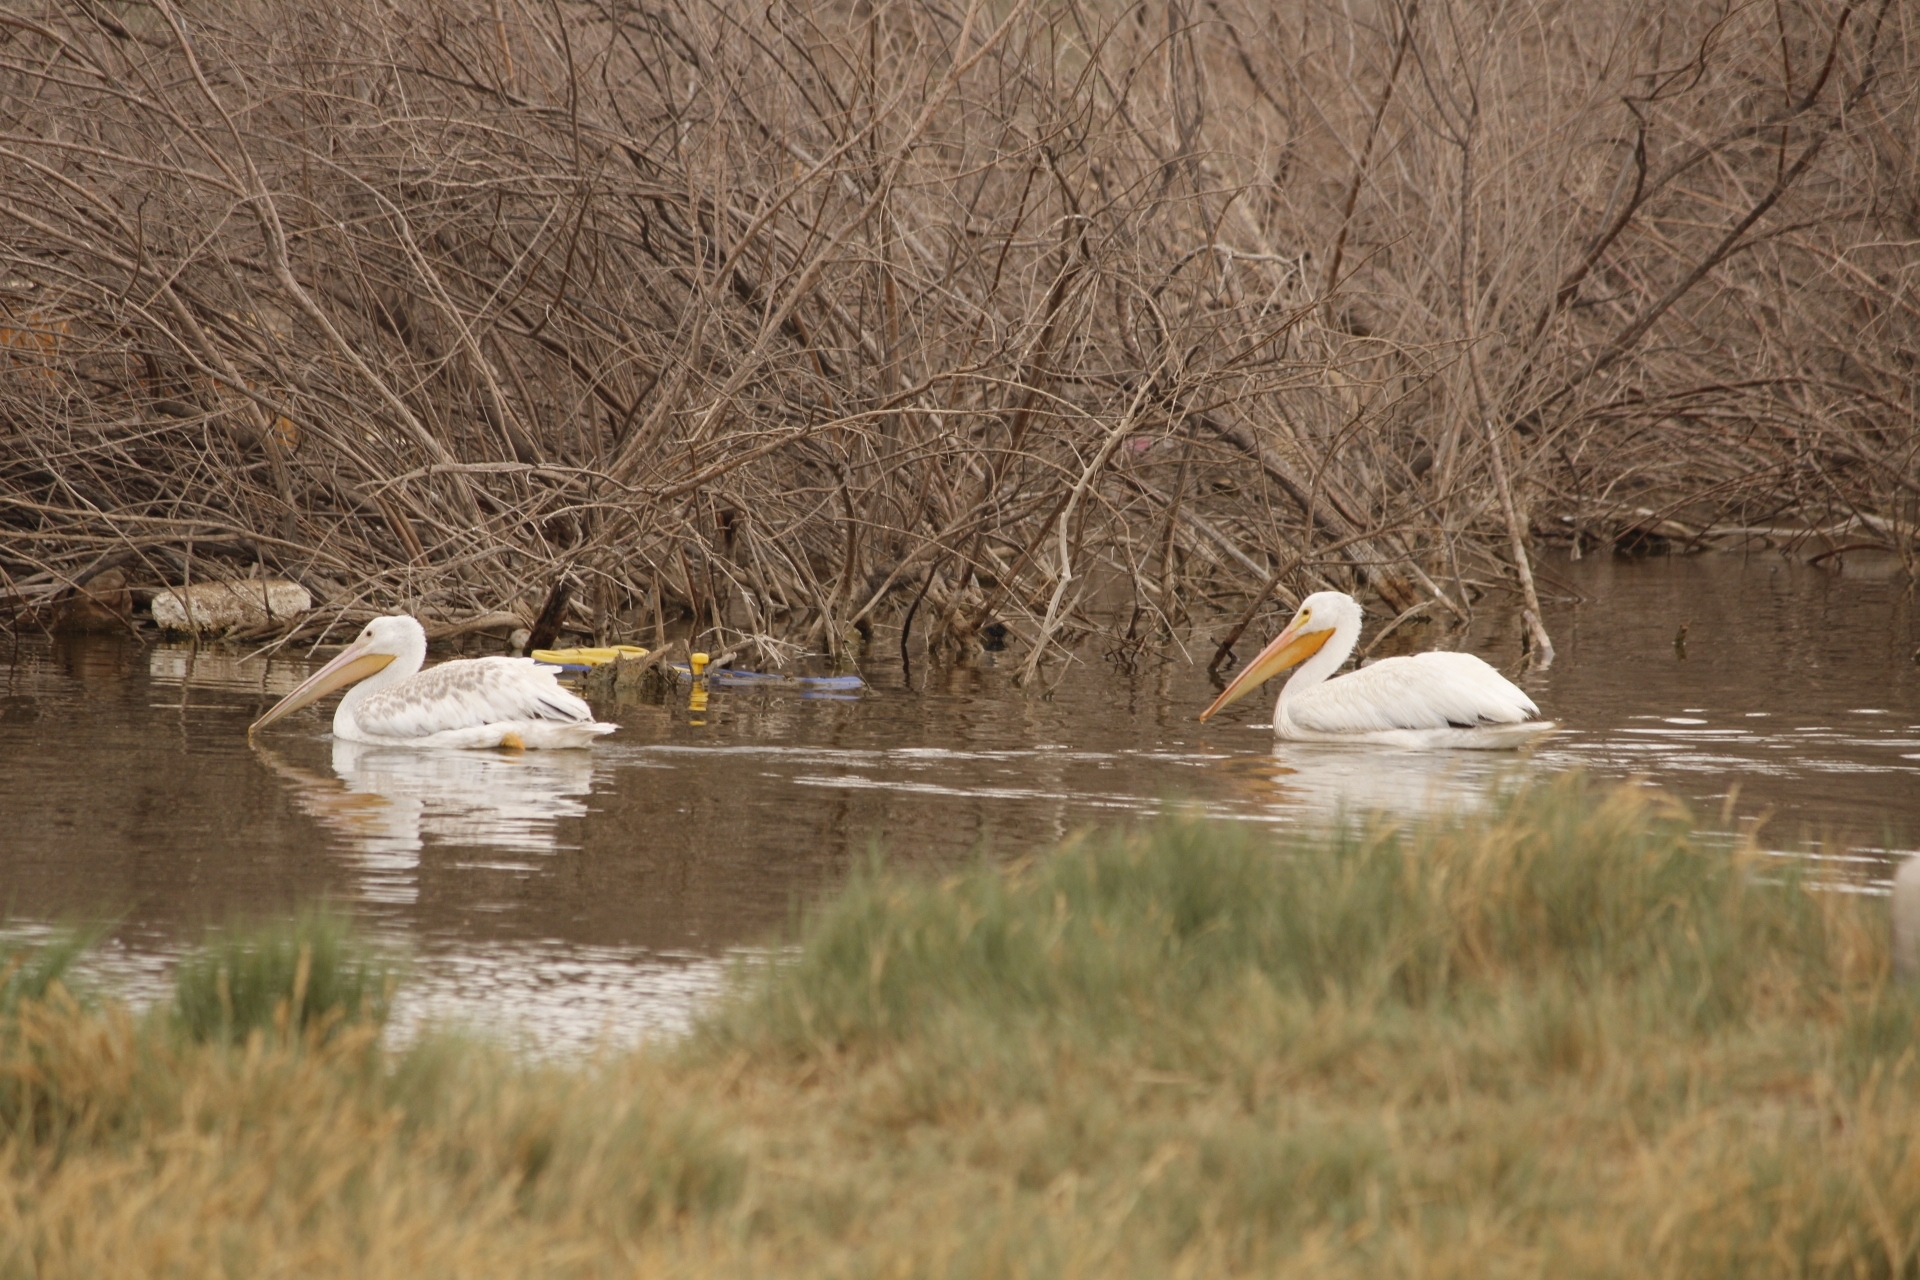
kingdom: Animalia
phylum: Chordata
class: Aves
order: Pelecaniformes
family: Pelecanidae
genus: Pelecanus
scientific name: Pelecanus erythrorhynchos
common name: American white pelican
